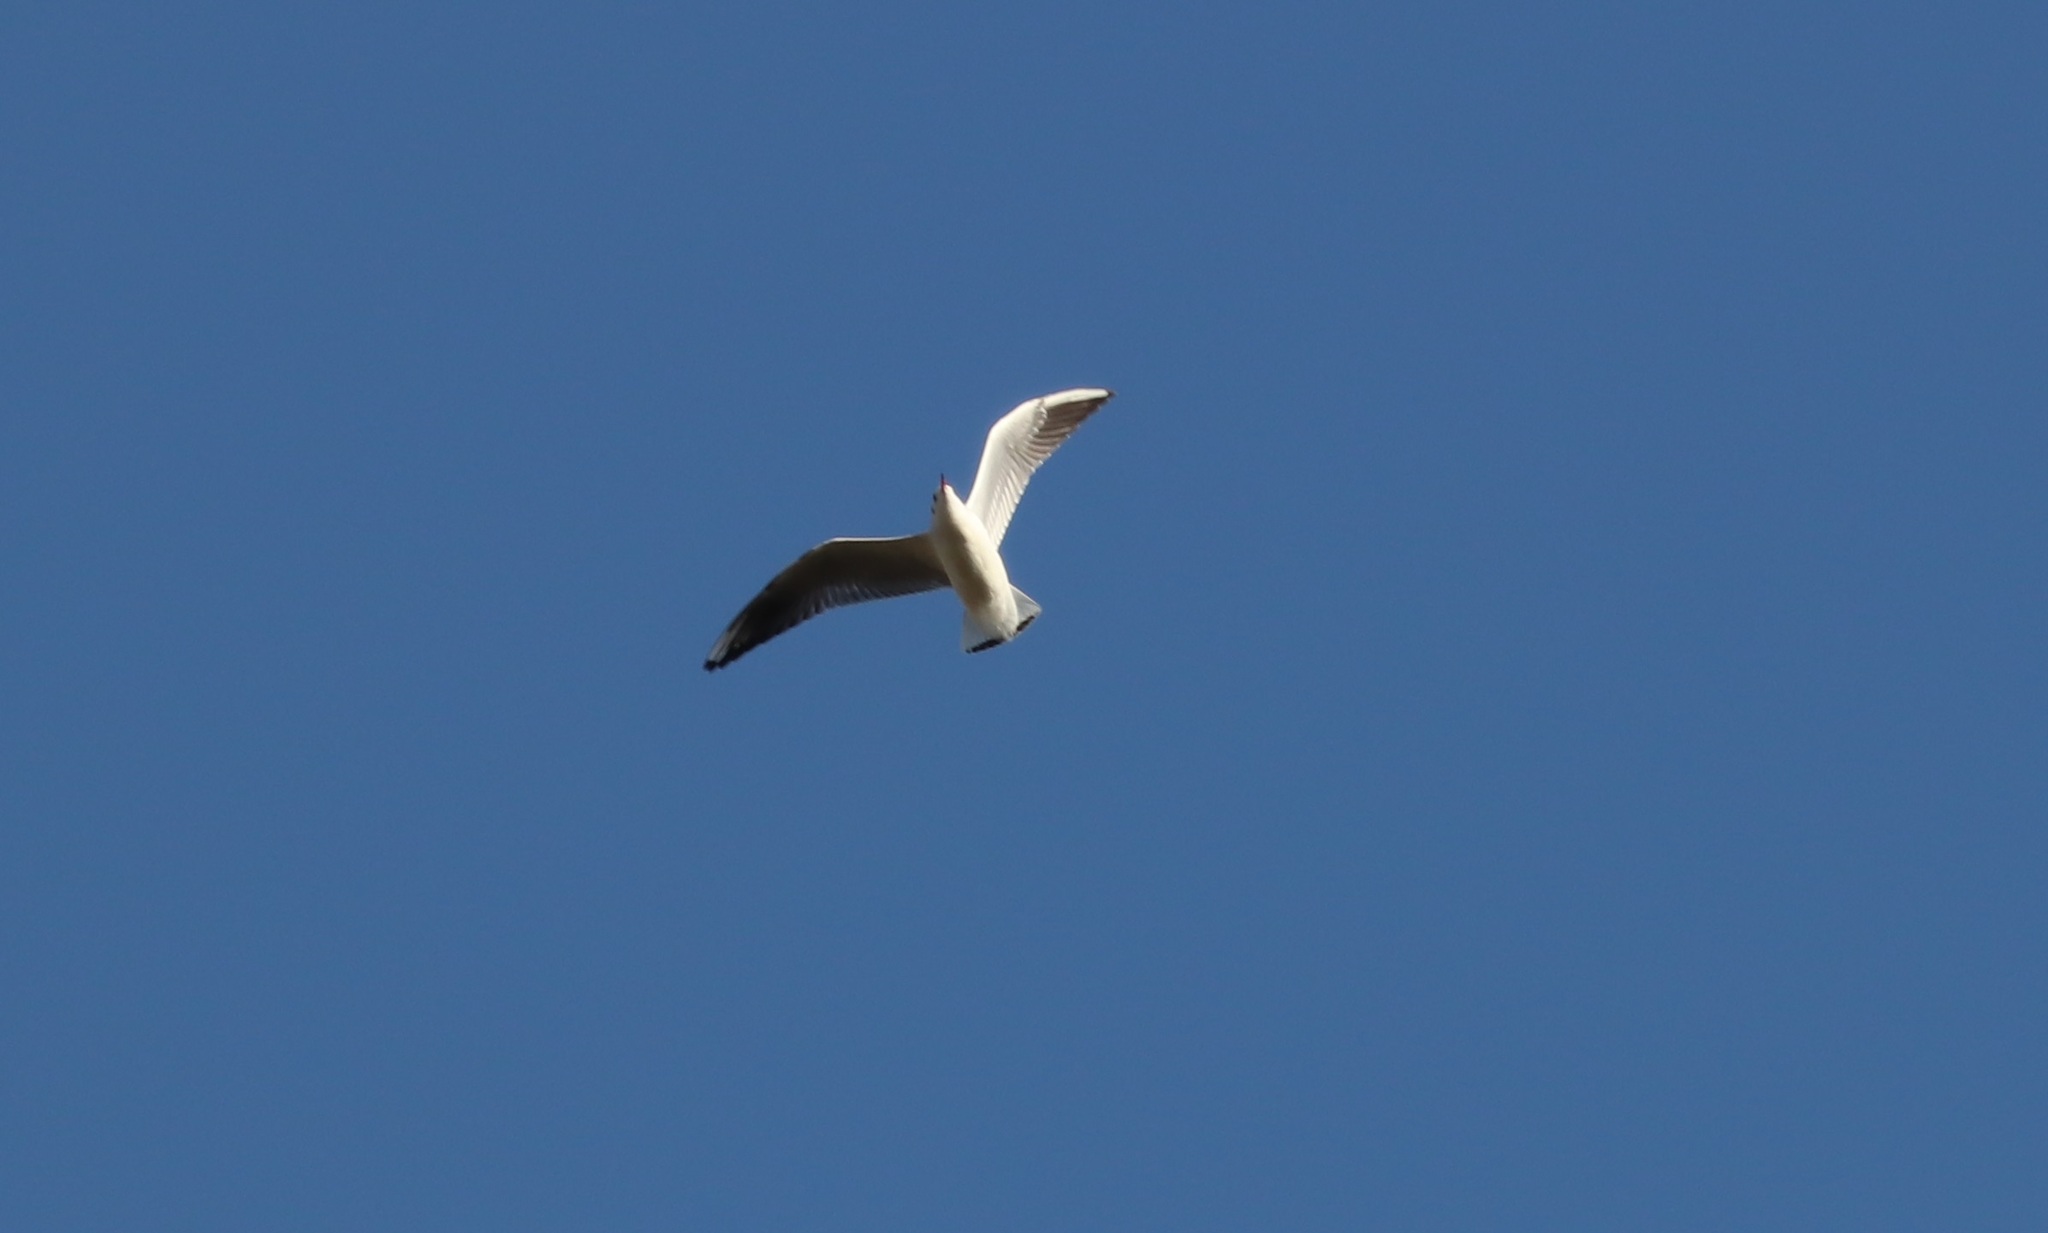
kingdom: Animalia
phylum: Chordata
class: Aves
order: Charadriiformes
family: Laridae
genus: Chroicocephalus
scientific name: Chroicocephalus ridibundus
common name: Black-headed gull
